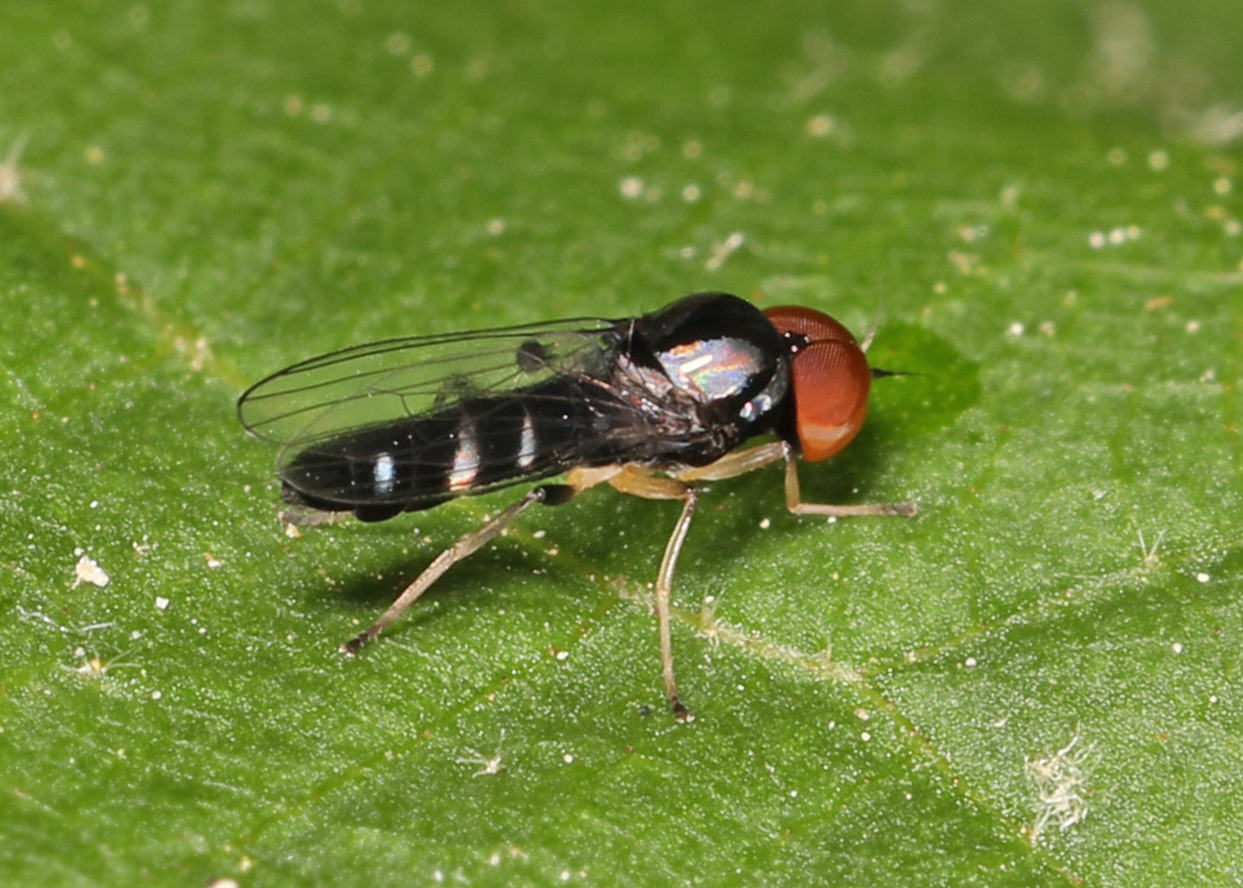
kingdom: Animalia
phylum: Arthropoda
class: Insecta
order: Diptera
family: Platypezidae
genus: Bertamyia
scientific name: Bertamyia notata
